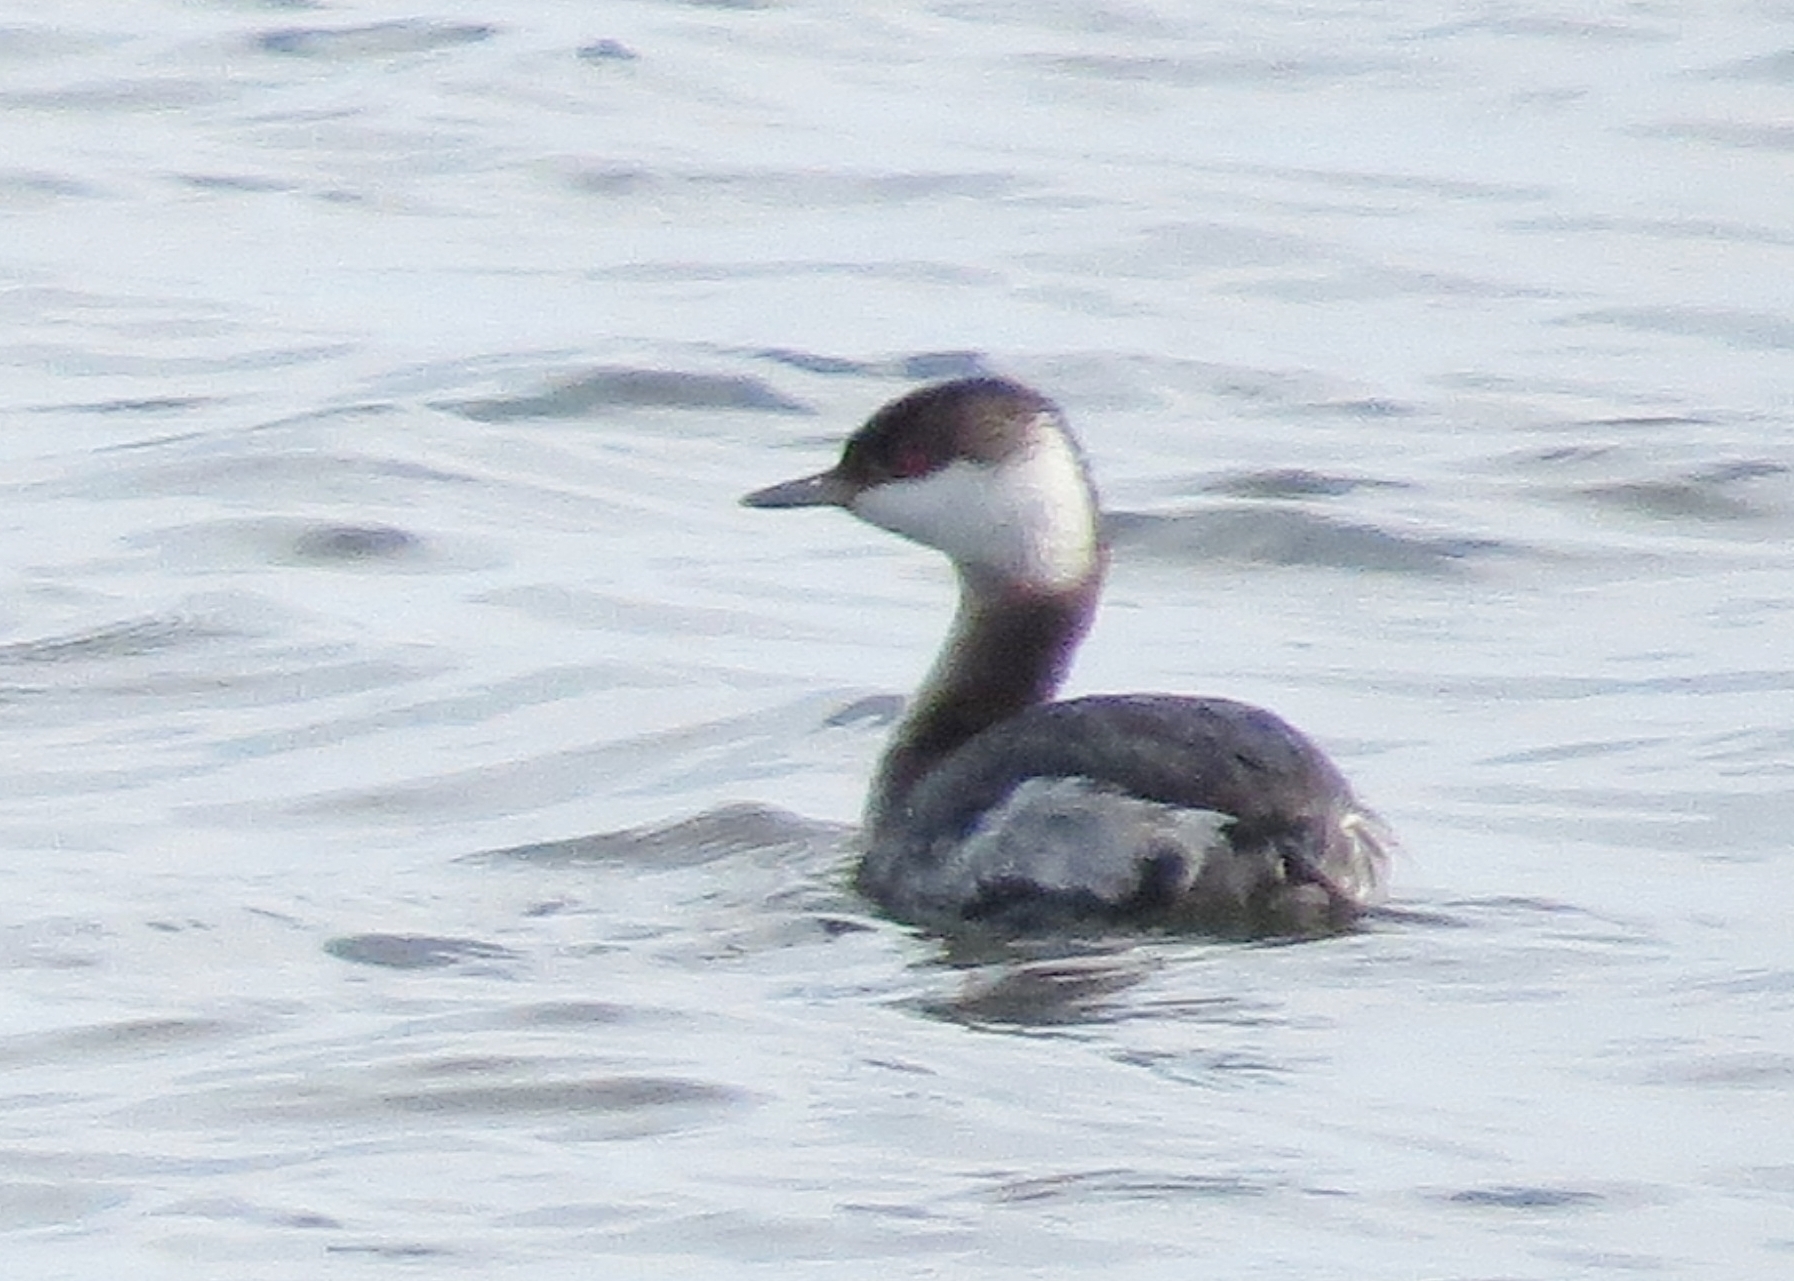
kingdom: Animalia
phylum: Chordata
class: Aves
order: Podicipediformes
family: Podicipedidae
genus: Podiceps
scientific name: Podiceps auritus
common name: Horned grebe
